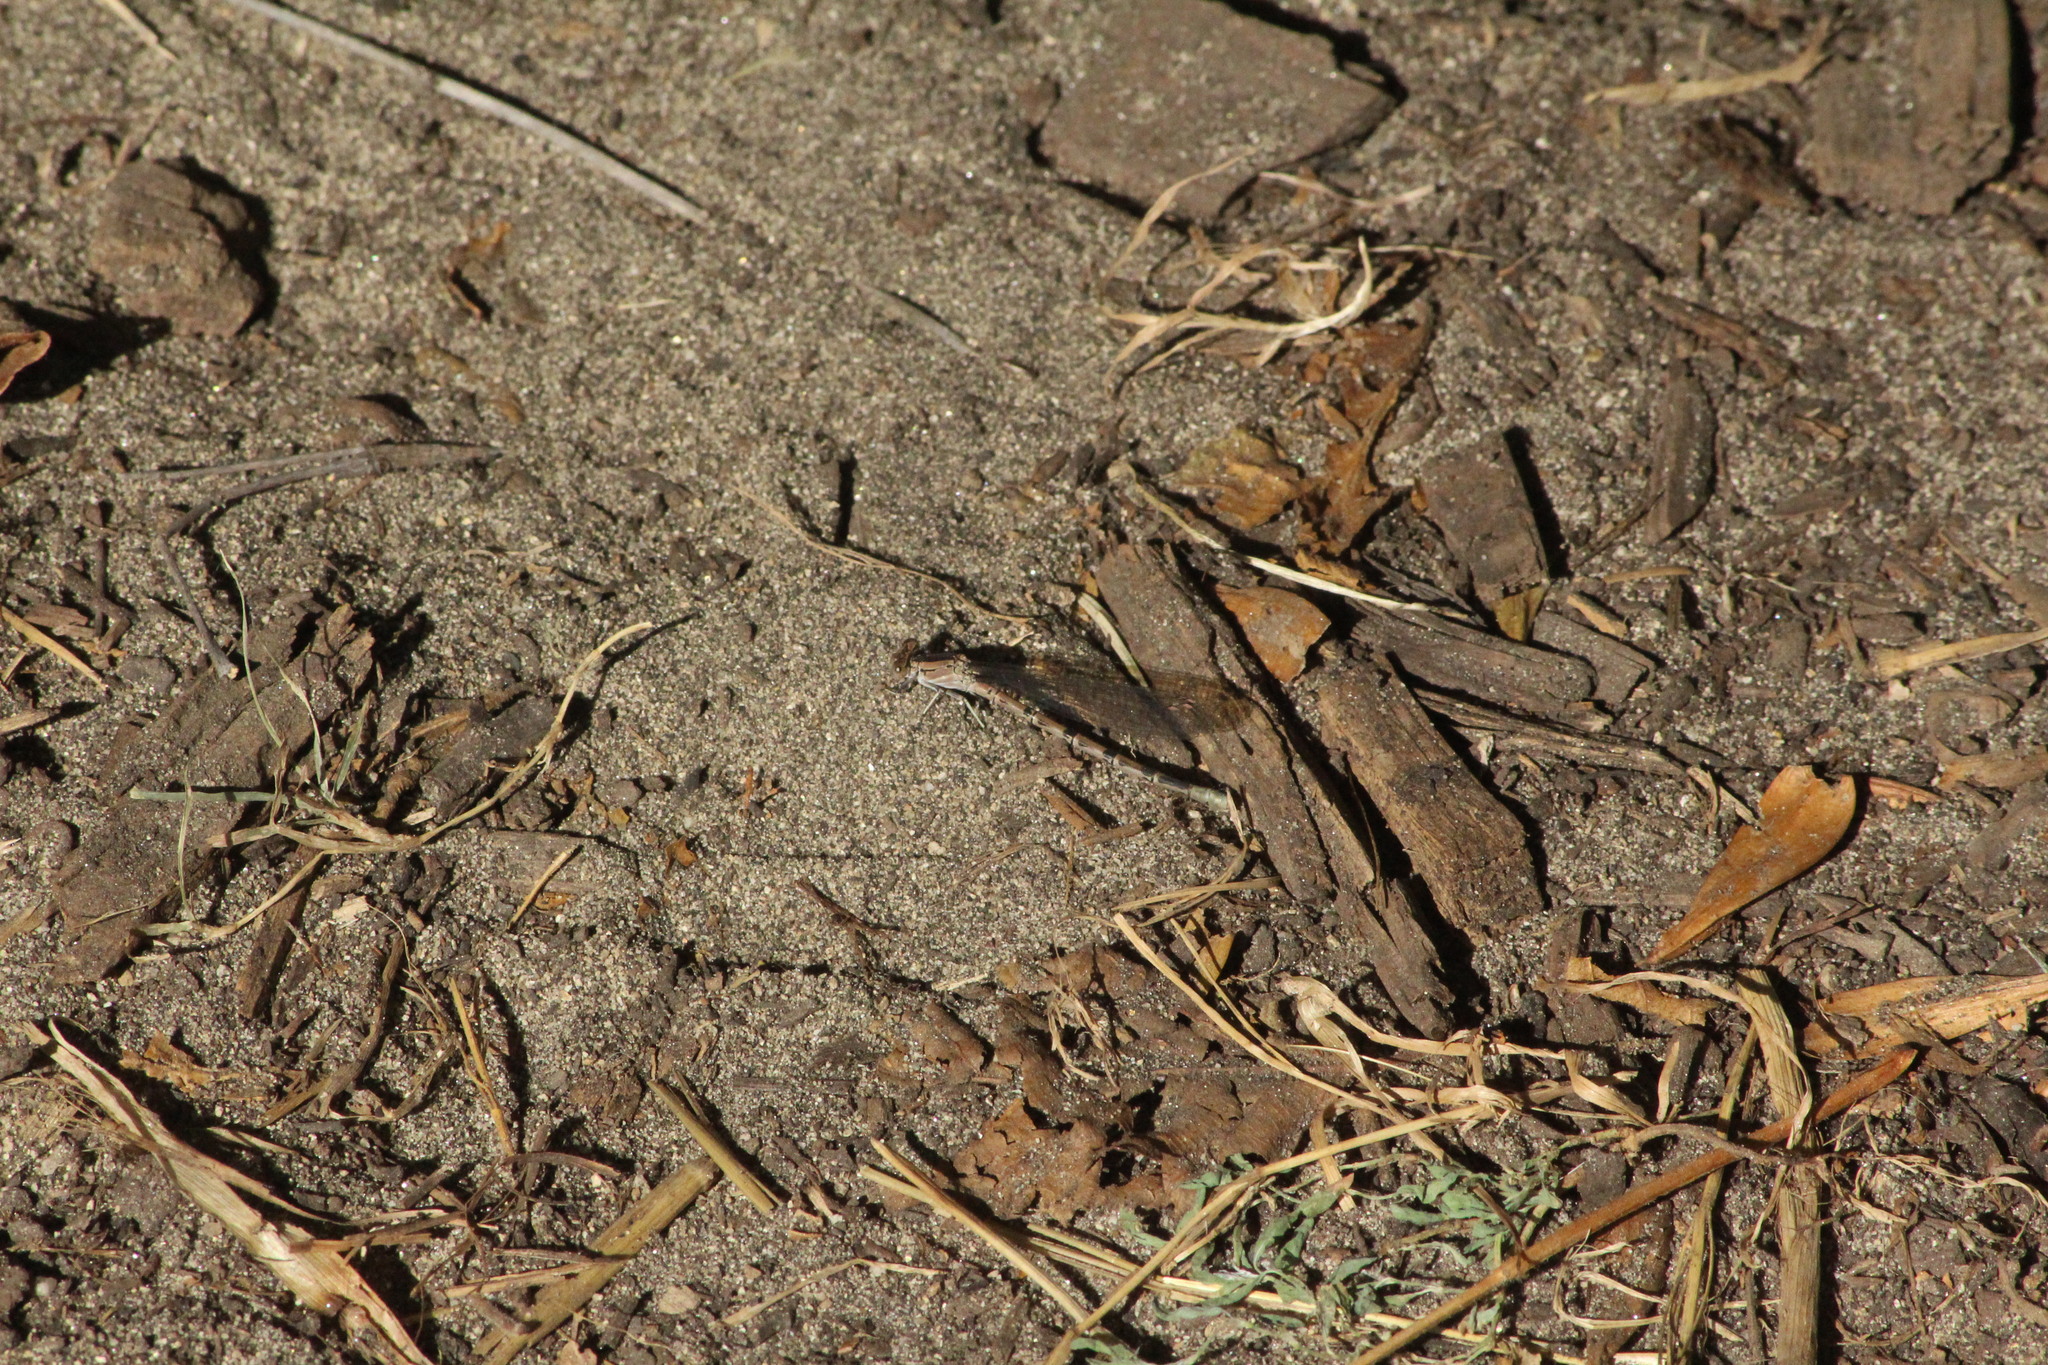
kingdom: Animalia
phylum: Arthropoda
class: Insecta
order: Odonata
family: Coenagrionidae
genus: Argia
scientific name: Argia vivida
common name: Vivid dancer
